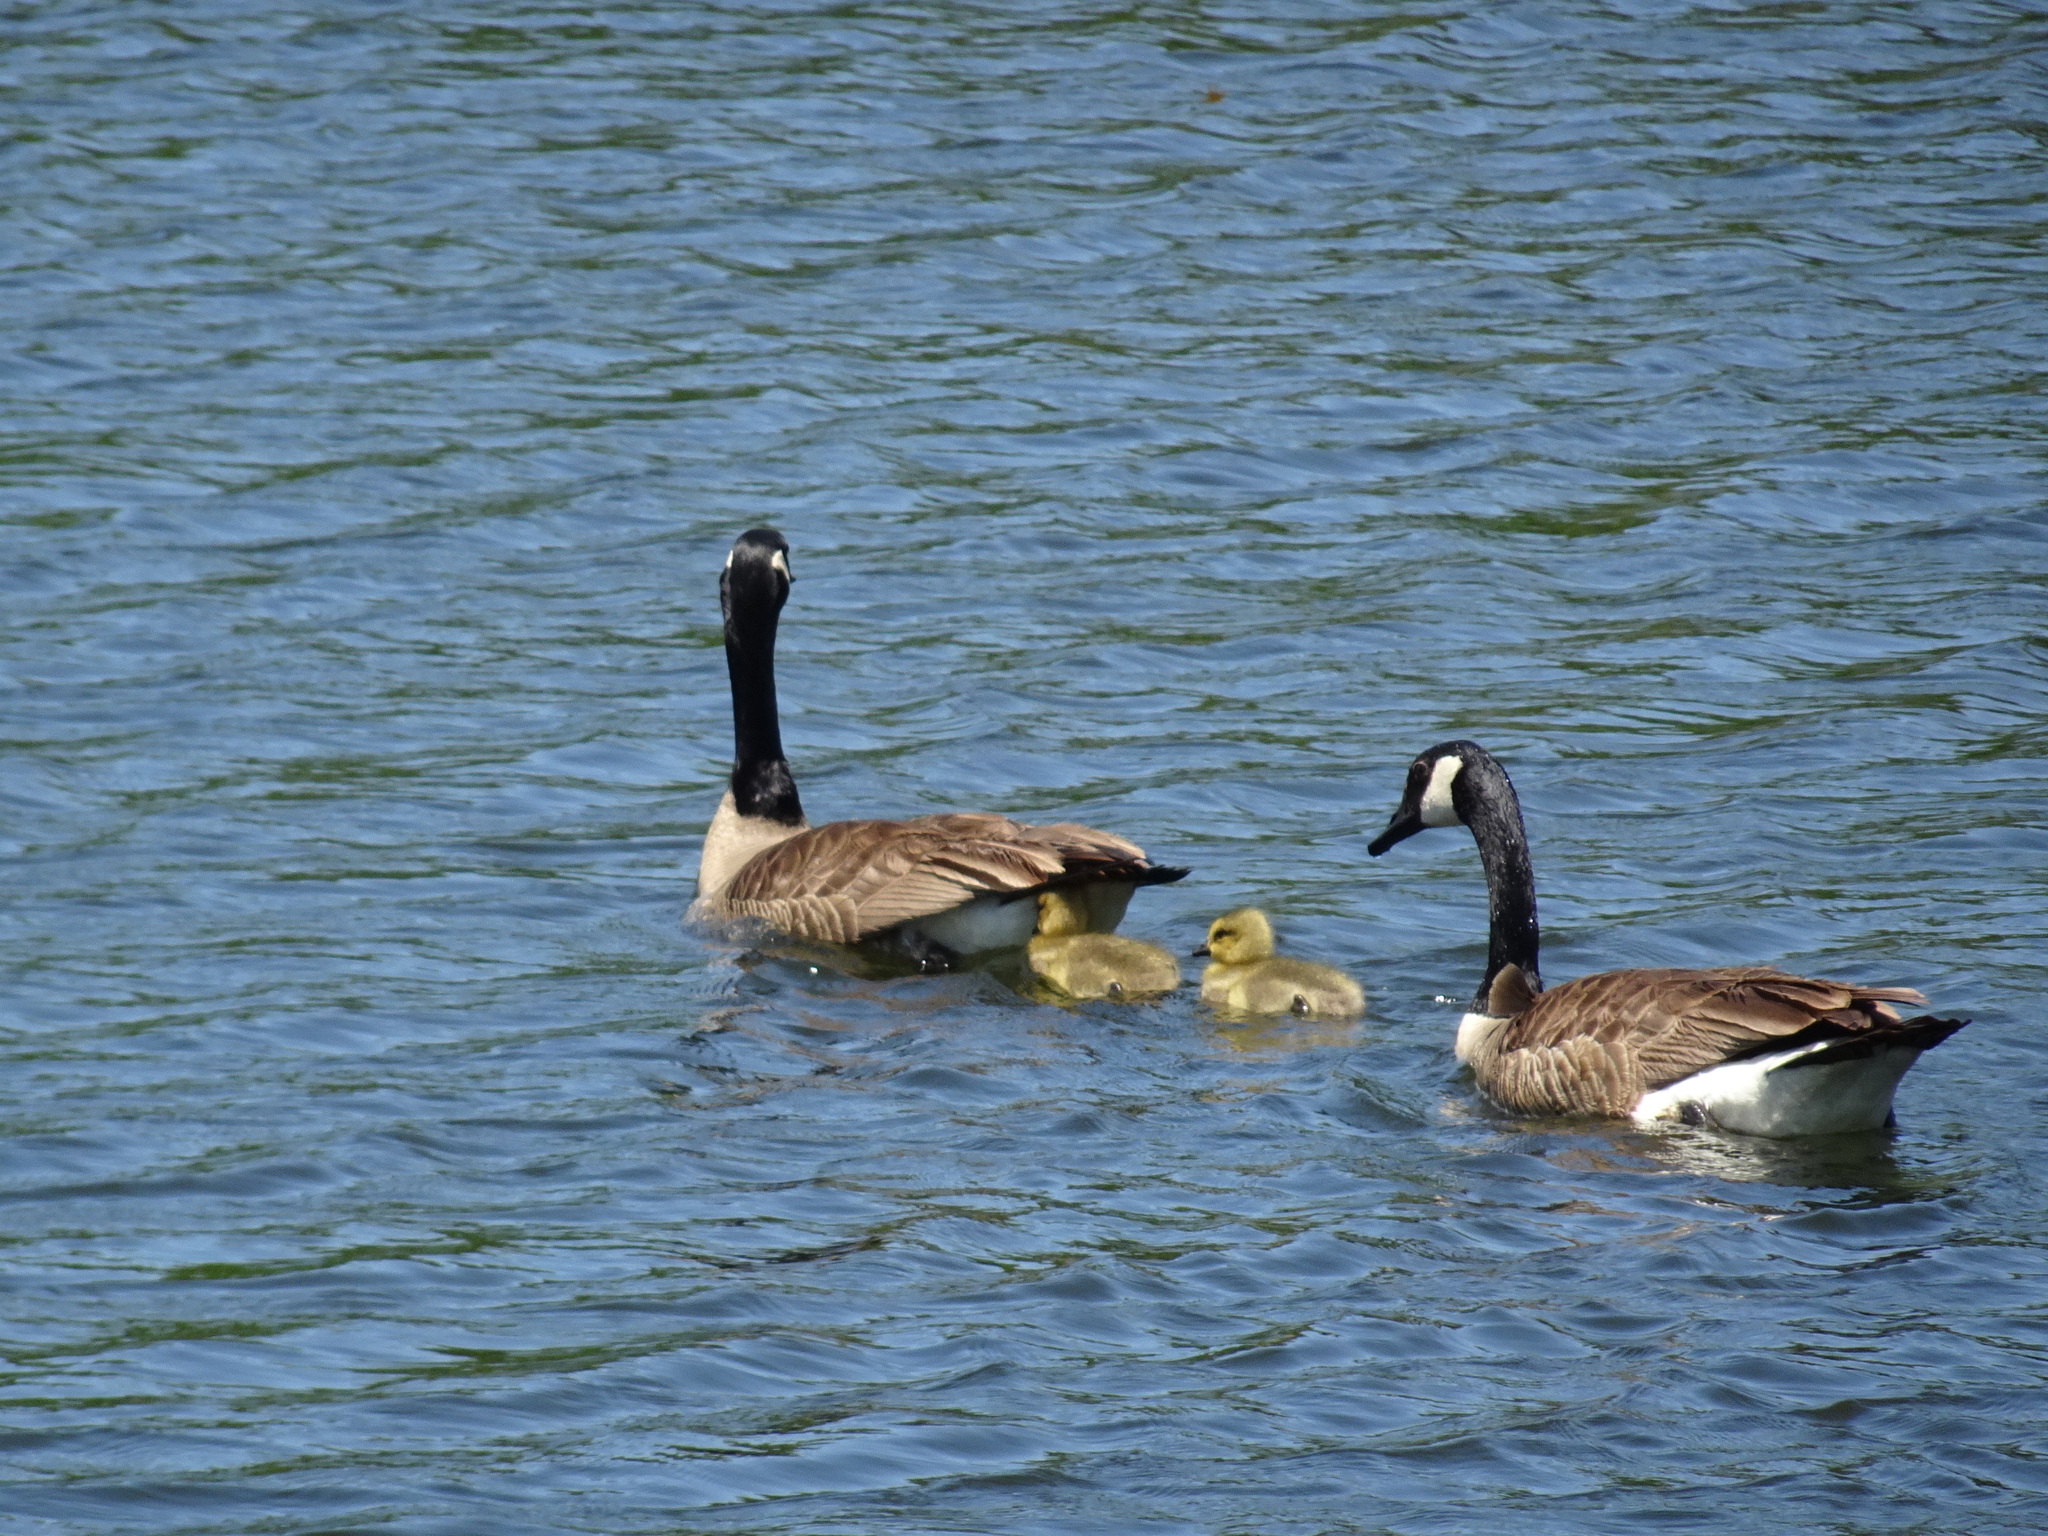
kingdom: Animalia
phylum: Chordata
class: Aves
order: Anseriformes
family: Anatidae
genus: Branta
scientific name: Branta canadensis
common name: Canada goose
